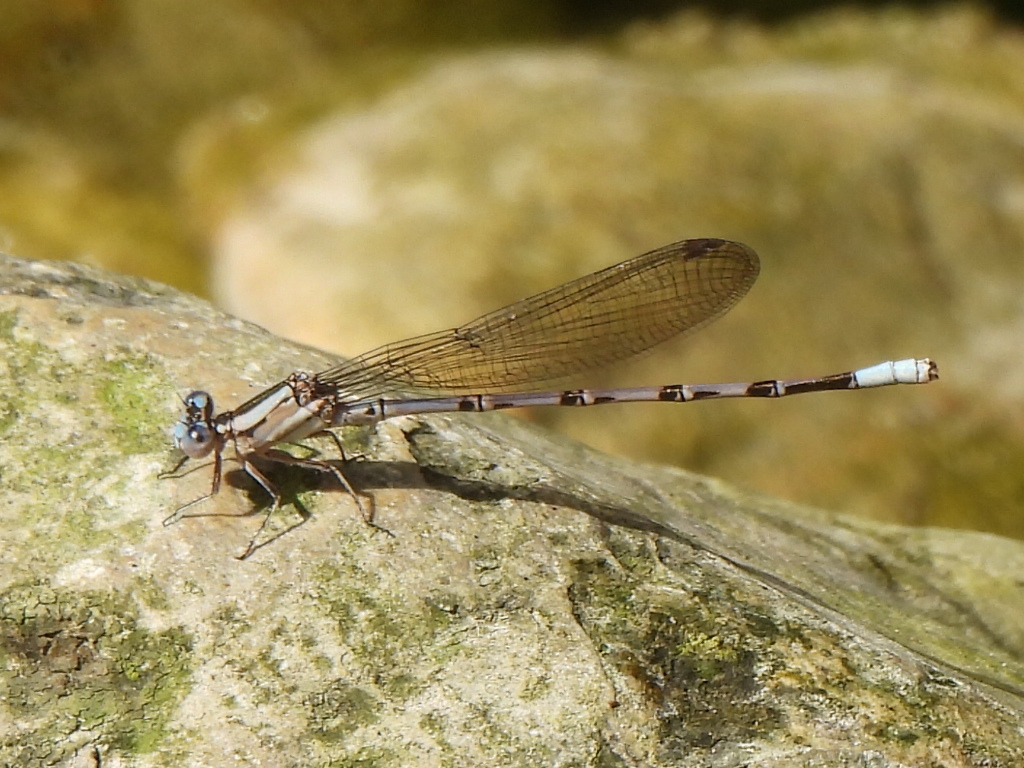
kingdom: Animalia
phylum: Arthropoda
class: Insecta
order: Odonata
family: Coenagrionidae
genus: Argia
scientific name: Argia funebris
